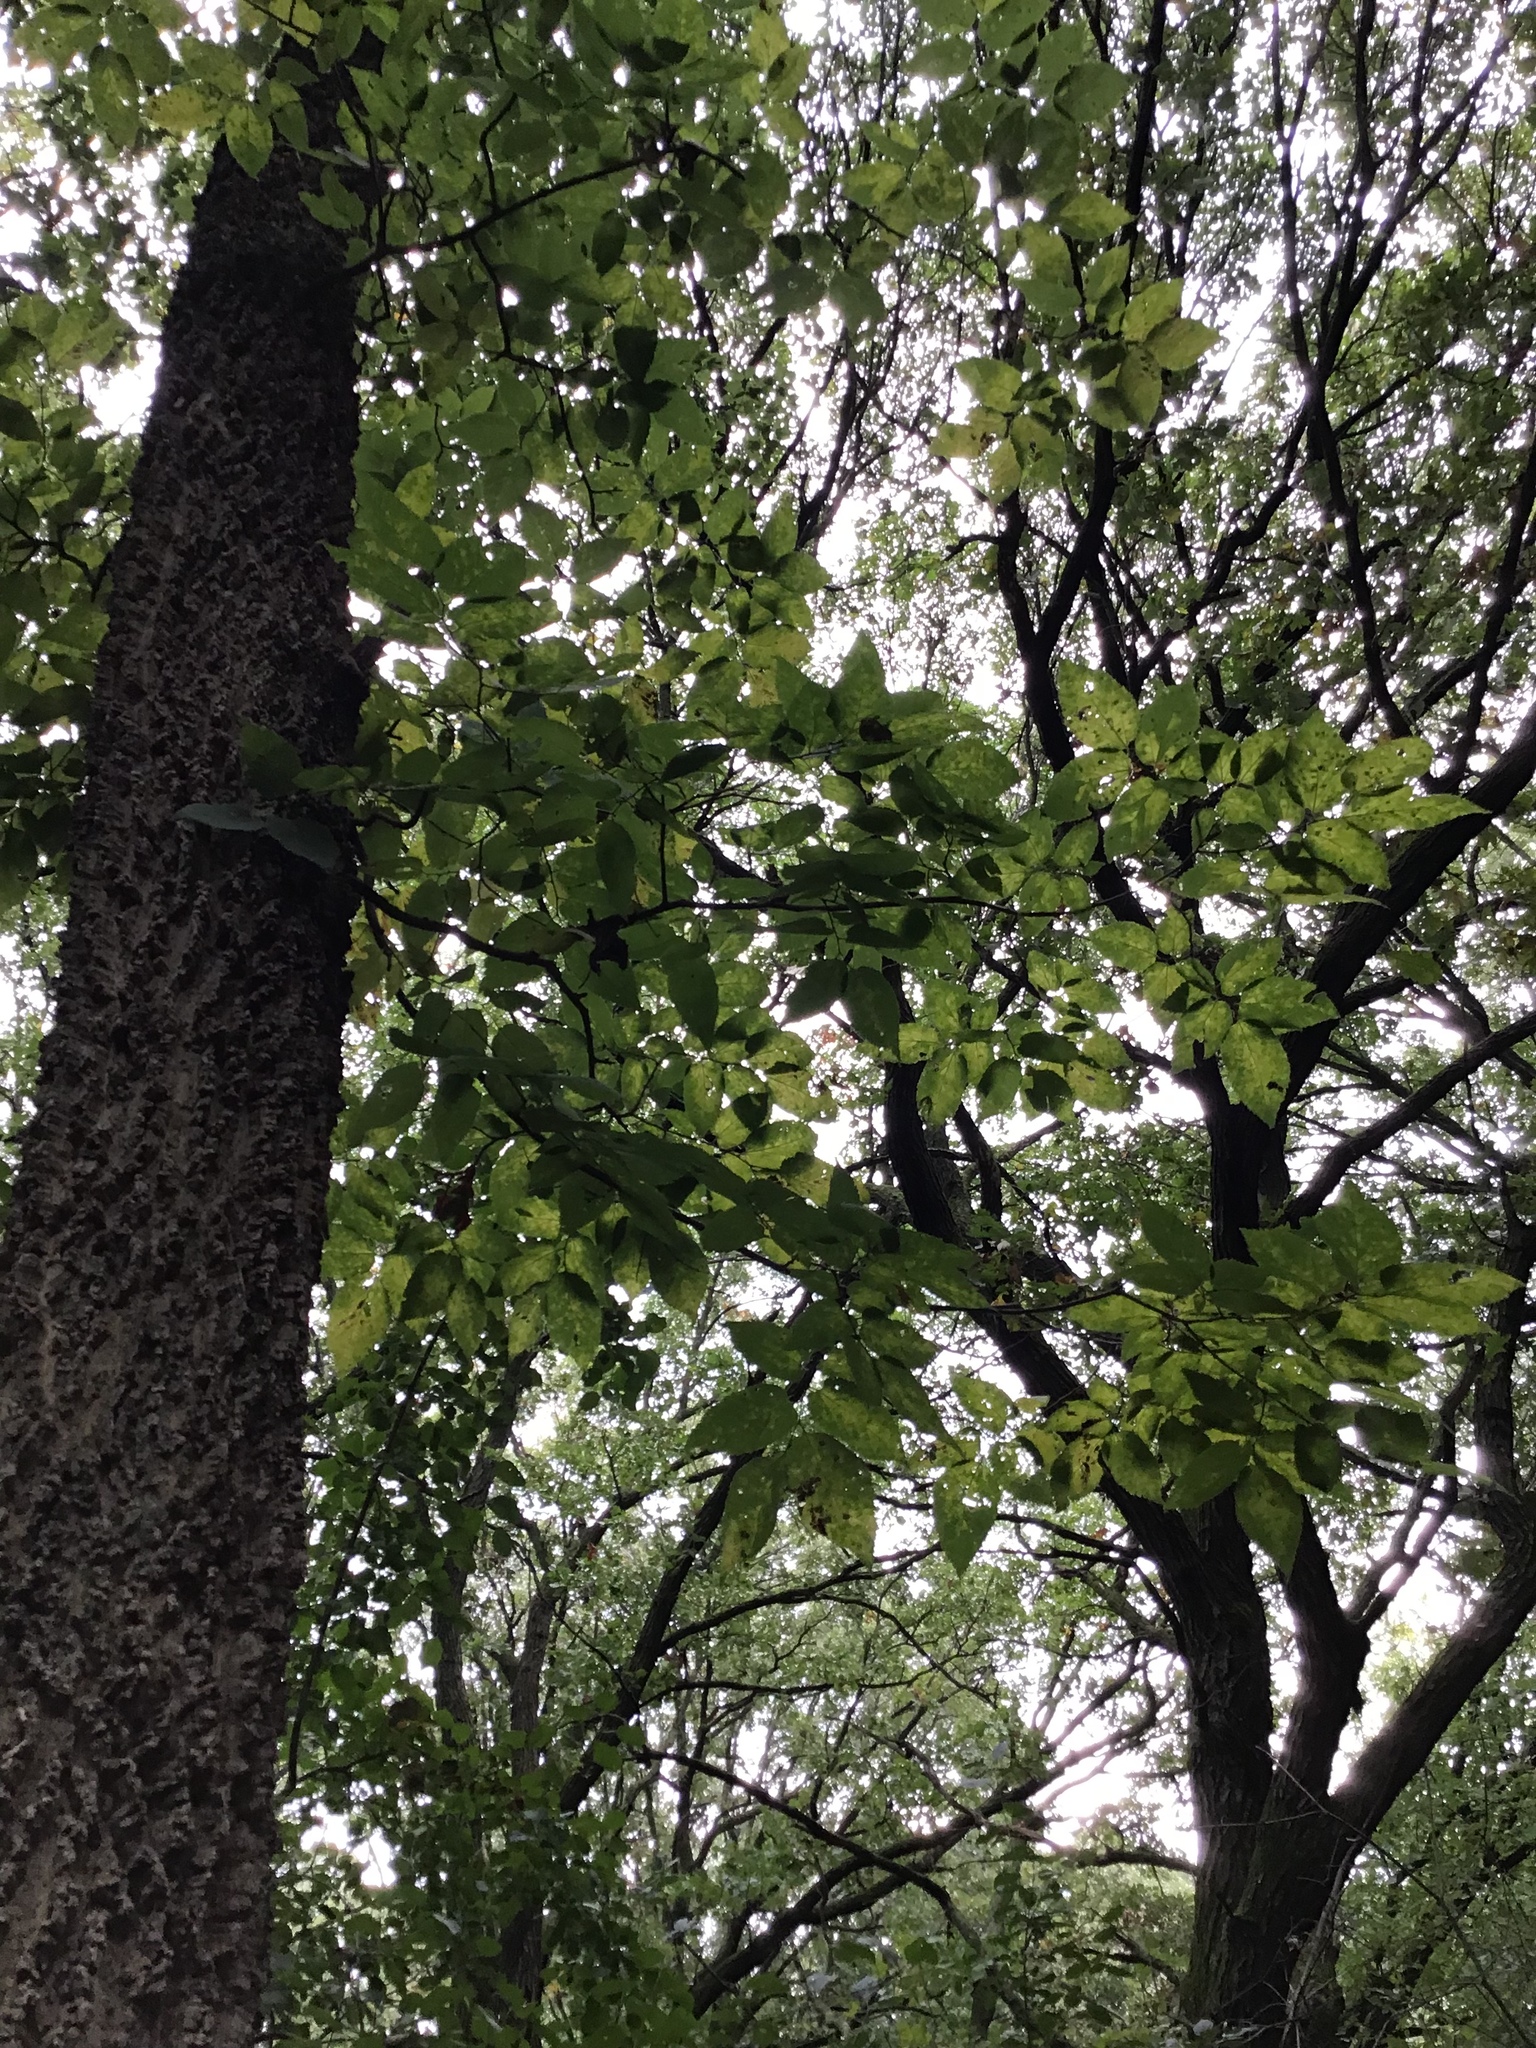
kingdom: Plantae
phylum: Tracheophyta
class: Magnoliopsida
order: Rosales
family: Cannabaceae
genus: Celtis
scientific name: Celtis occidentalis
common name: Common hackberry
